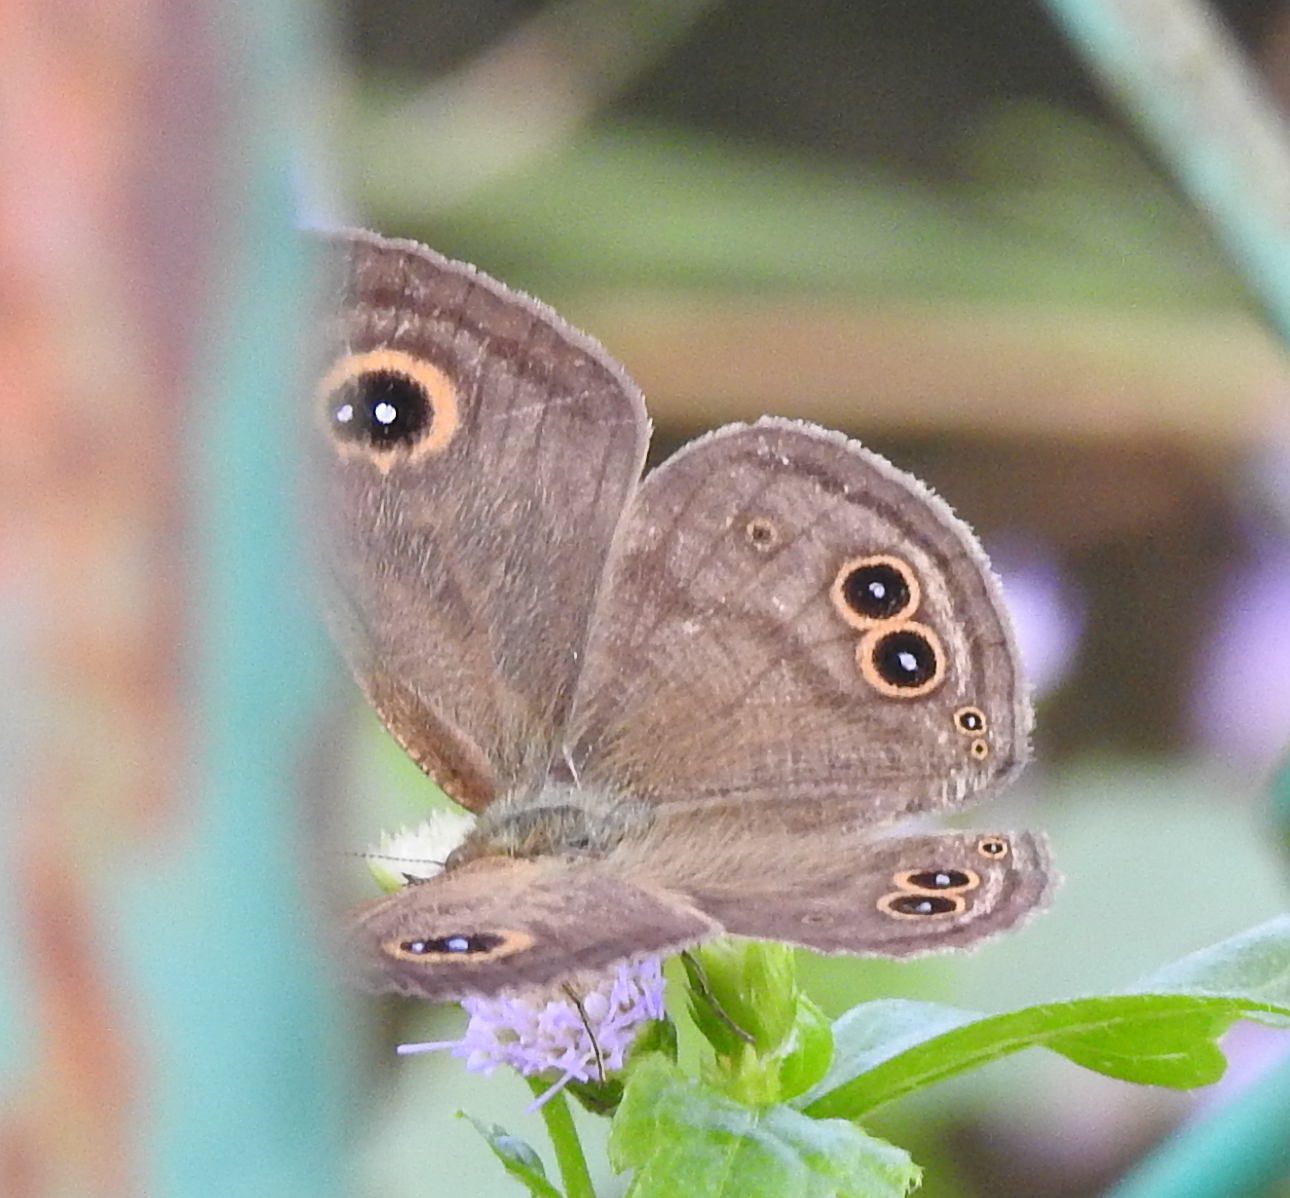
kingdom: Animalia
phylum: Arthropoda
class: Insecta
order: Lepidoptera
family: Nymphalidae
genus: Ypthima
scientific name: Ypthima baldus
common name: Common five-ring
